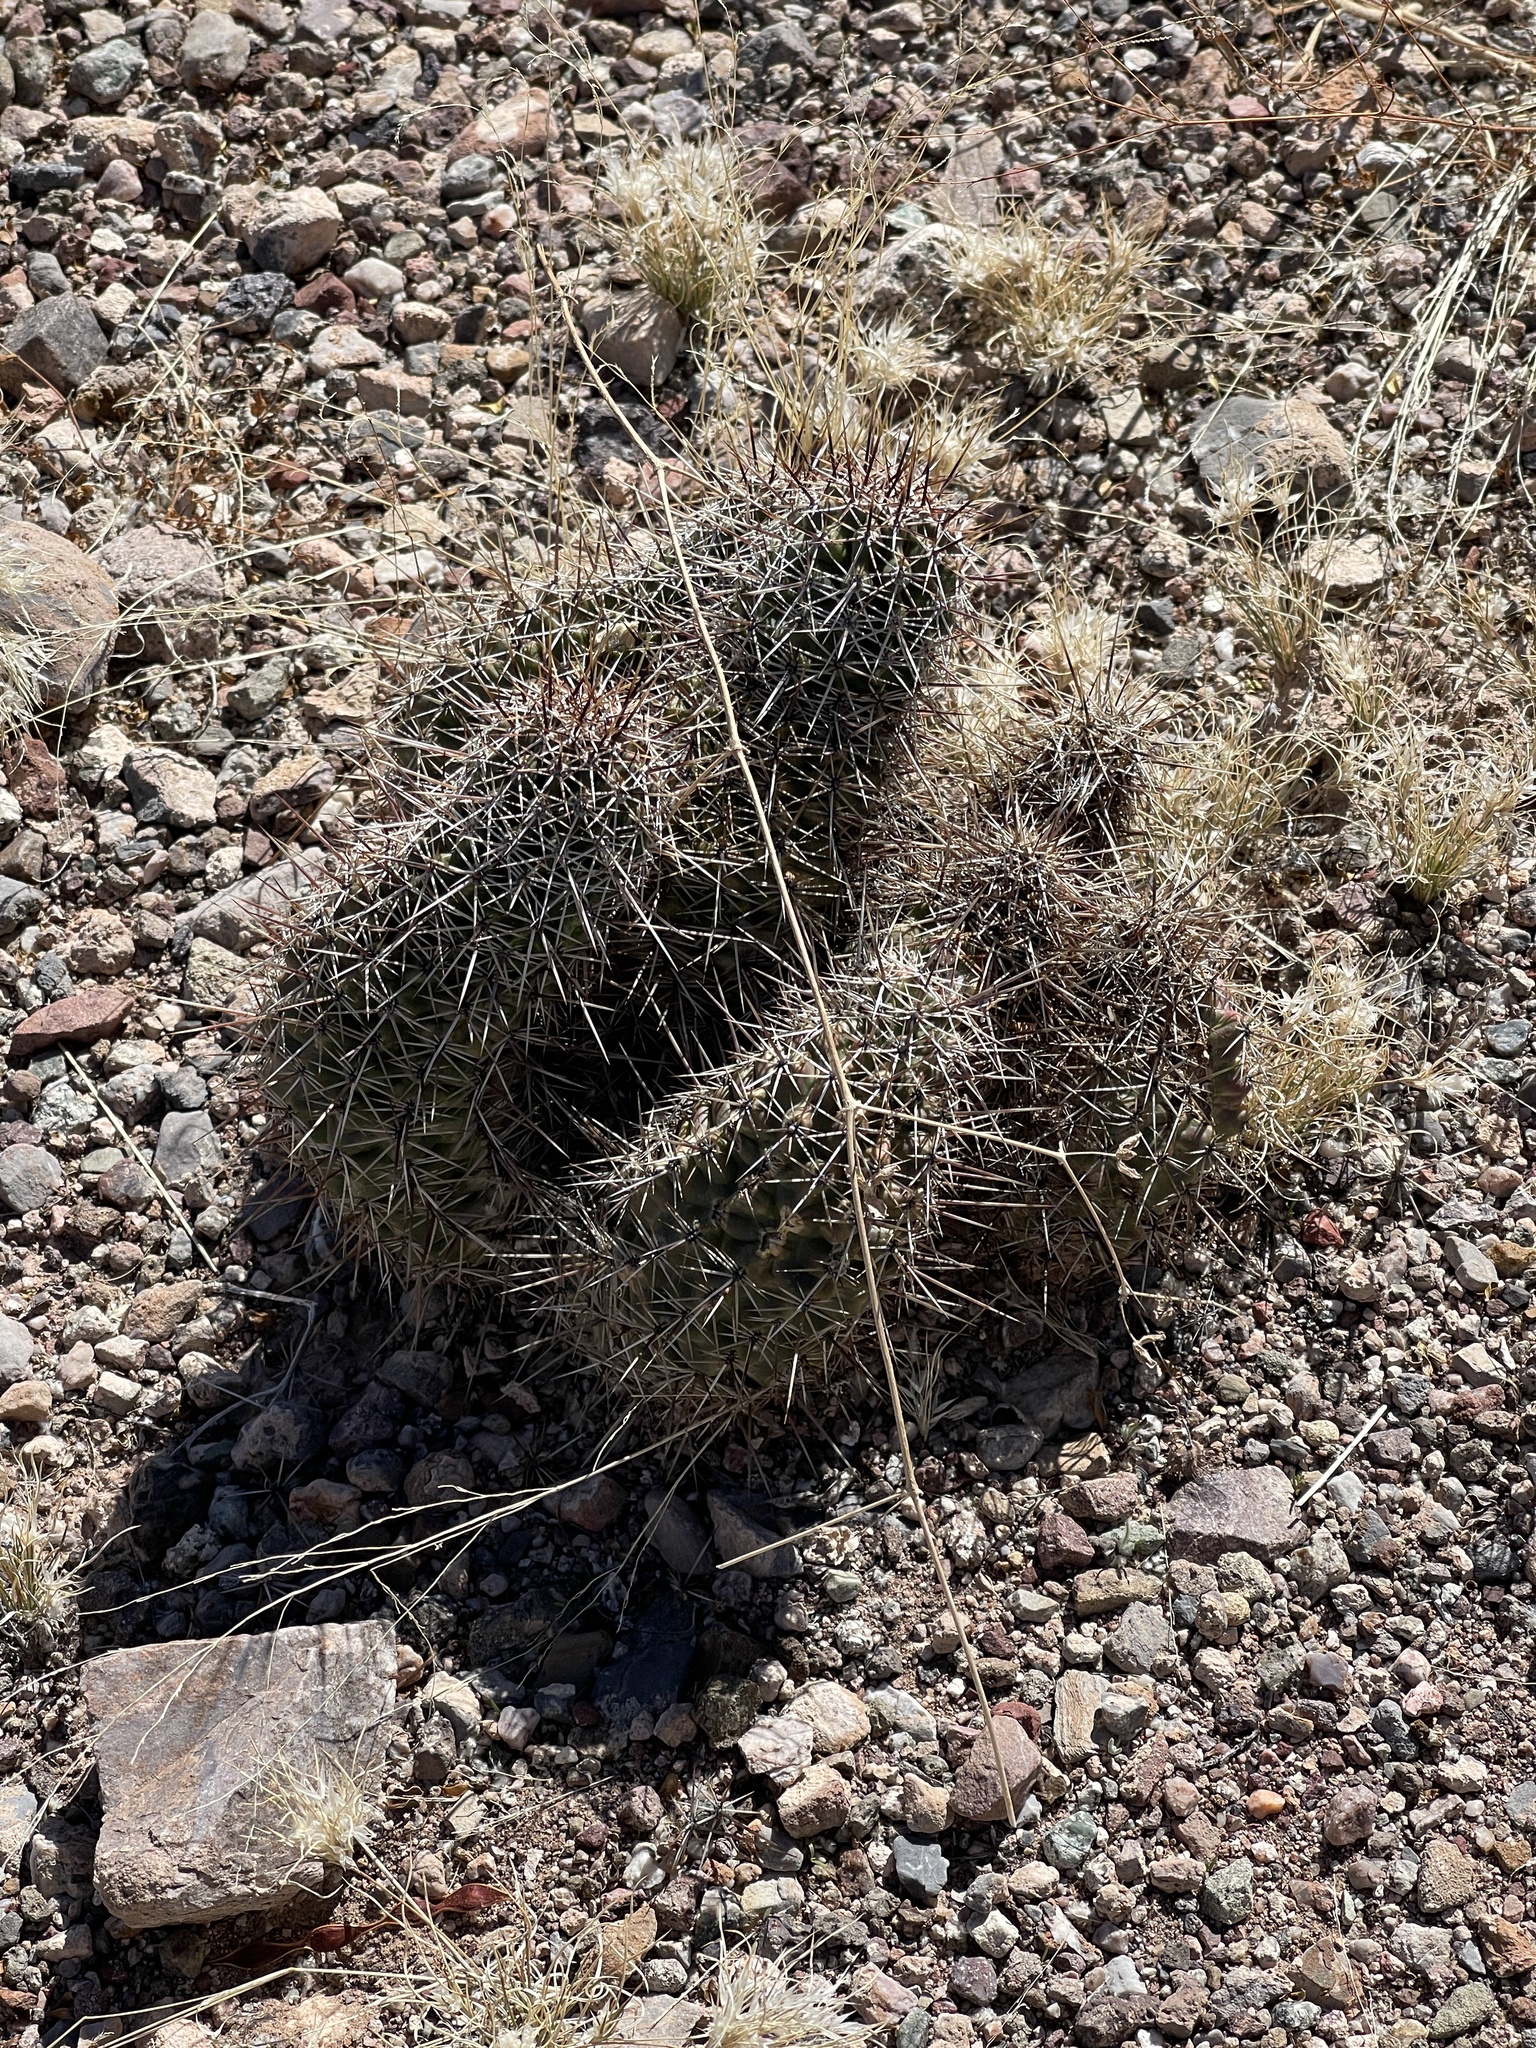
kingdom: Plantae
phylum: Tracheophyta
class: Magnoliopsida
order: Caryophyllales
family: Cactaceae
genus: Echinocereus
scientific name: Echinocereus fasciculatus
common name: Bundle hedgehog
